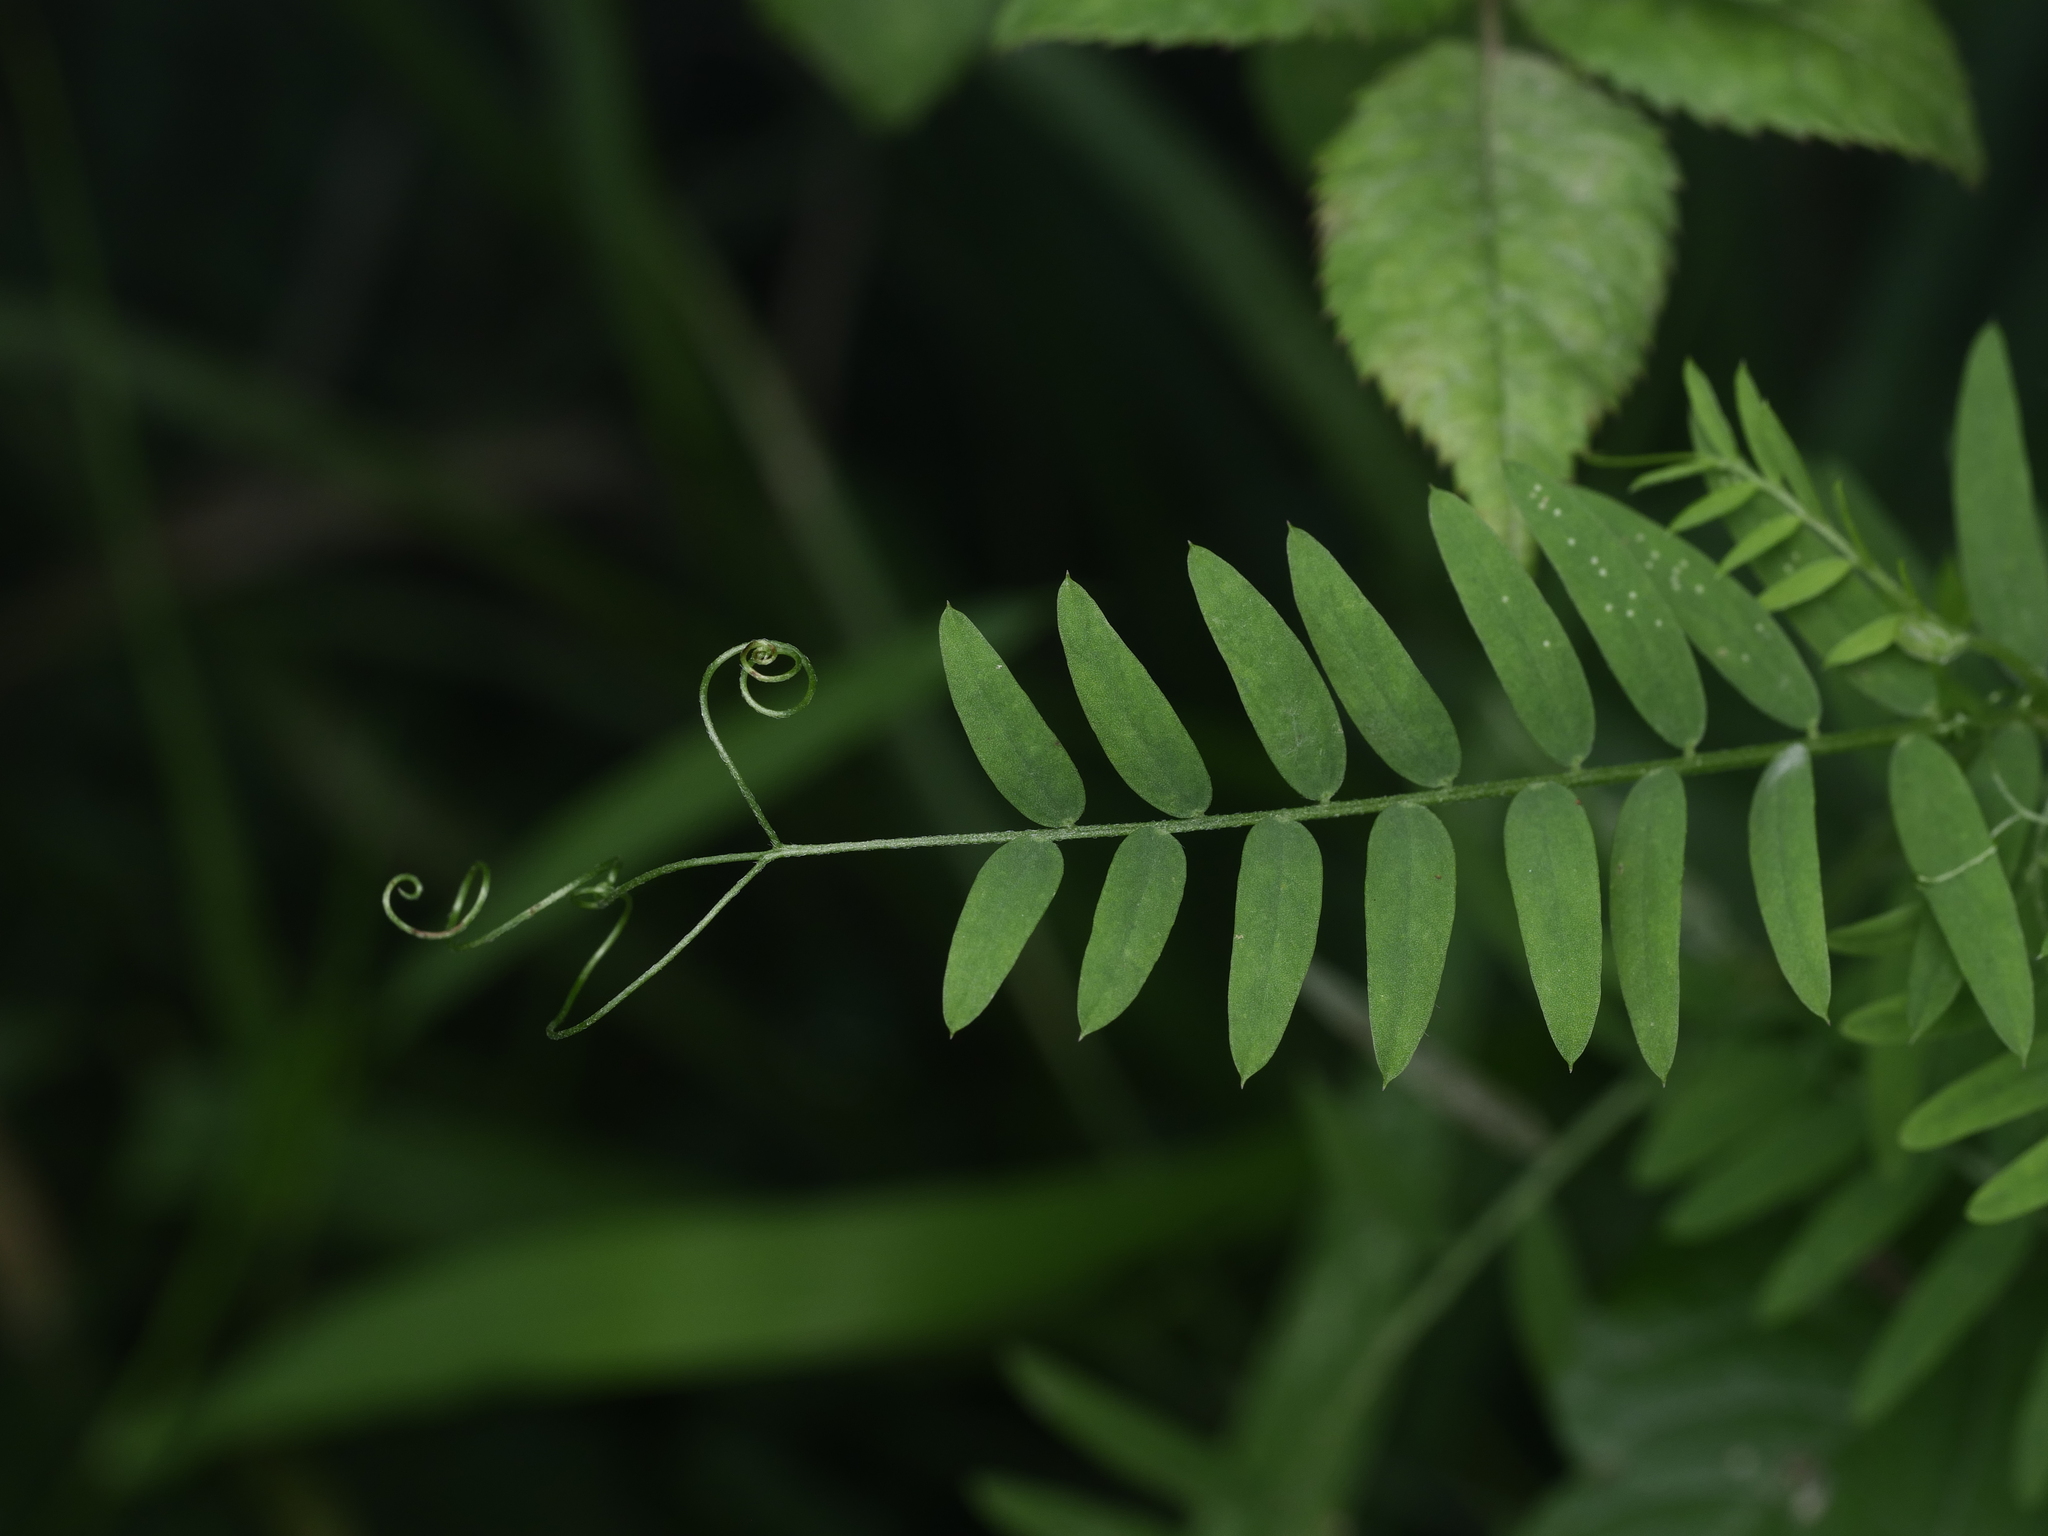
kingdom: Plantae
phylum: Tracheophyta
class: Magnoliopsida
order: Fabales
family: Fabaceae
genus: Vicia
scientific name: Vicia cracca
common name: Bird vetch
